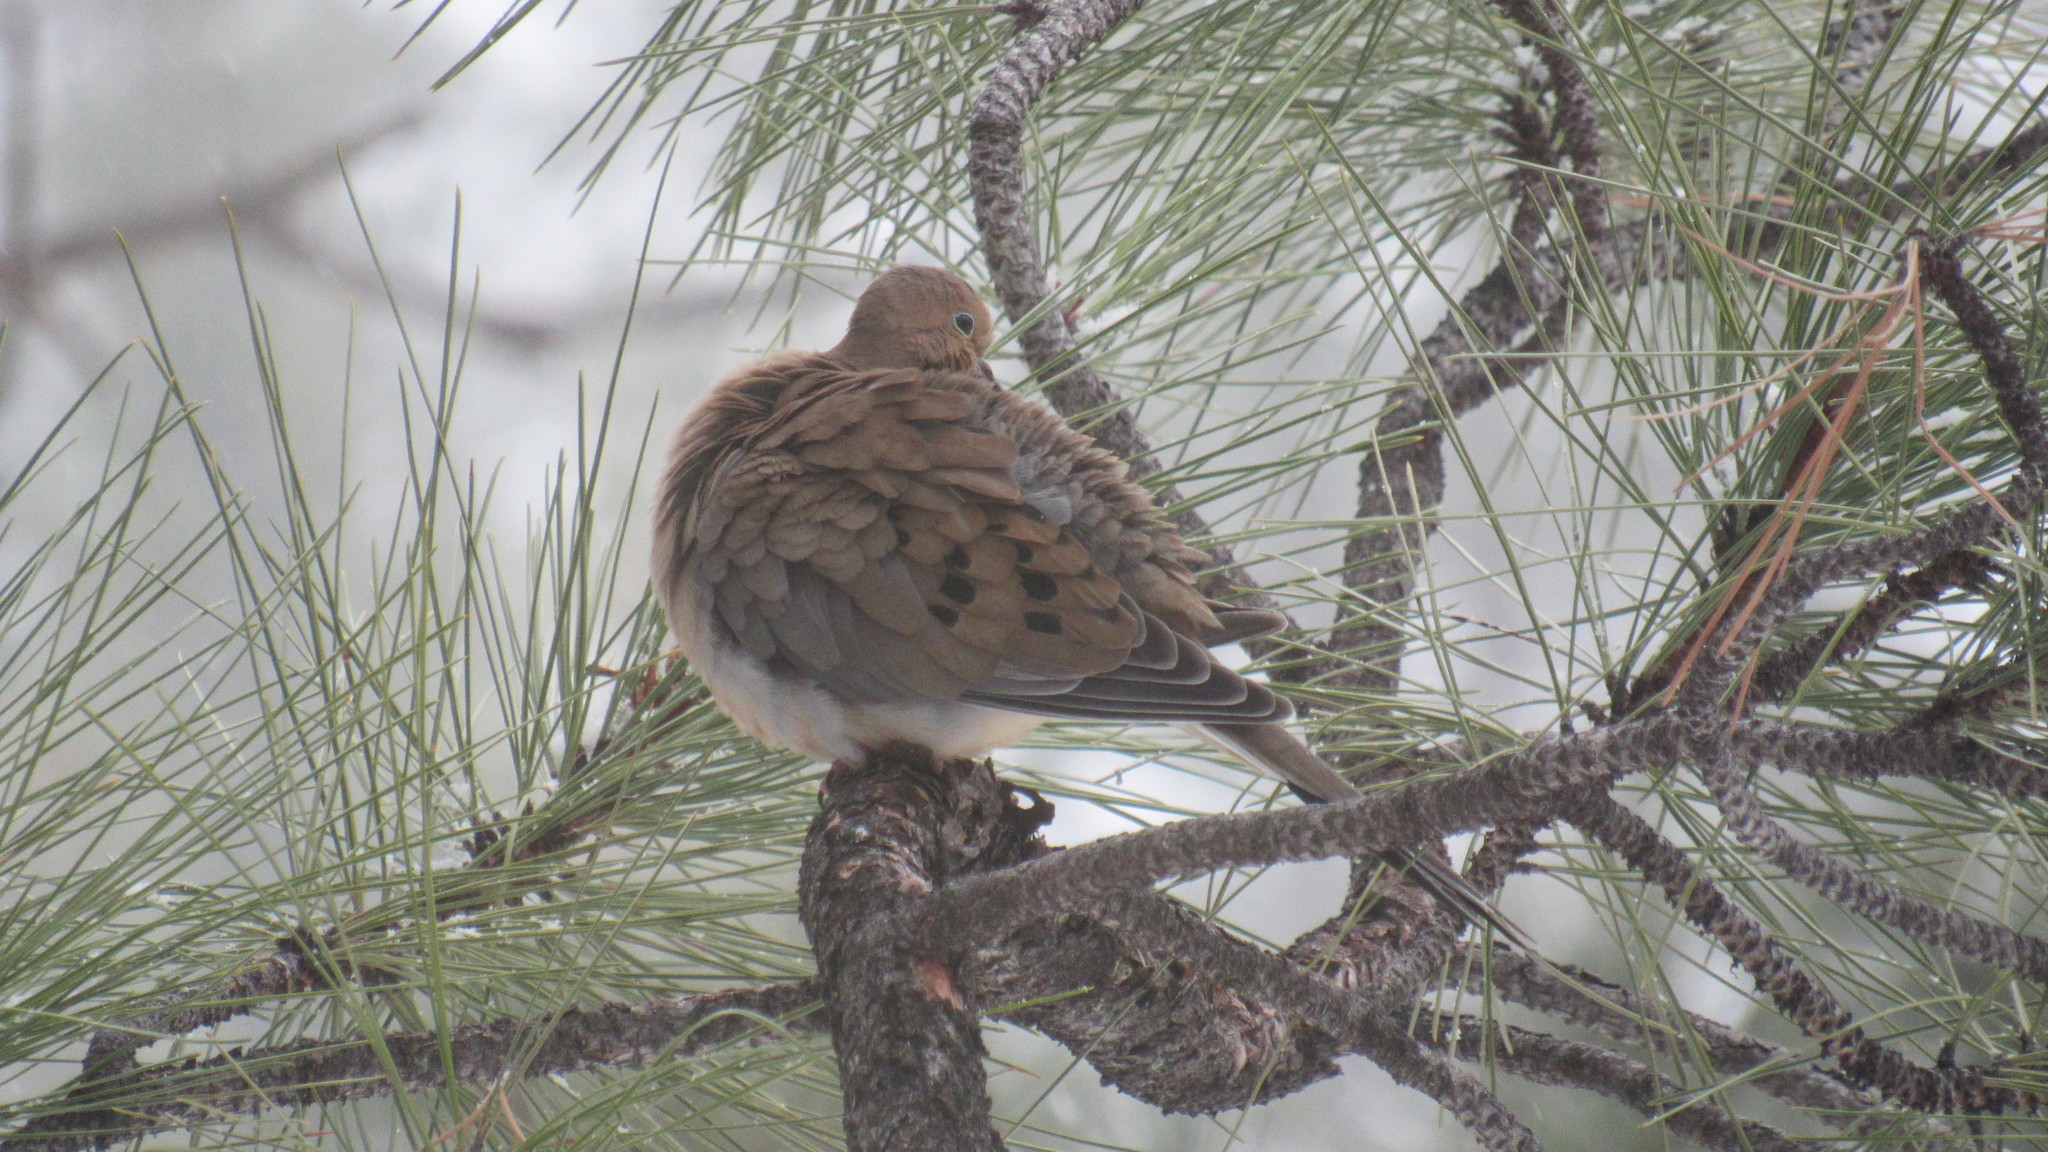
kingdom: Animalia
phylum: Chordata
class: Aves
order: Columbiformes
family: Columbidae
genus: Zenaida
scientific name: Zenaida macroura
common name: Mourning dove
